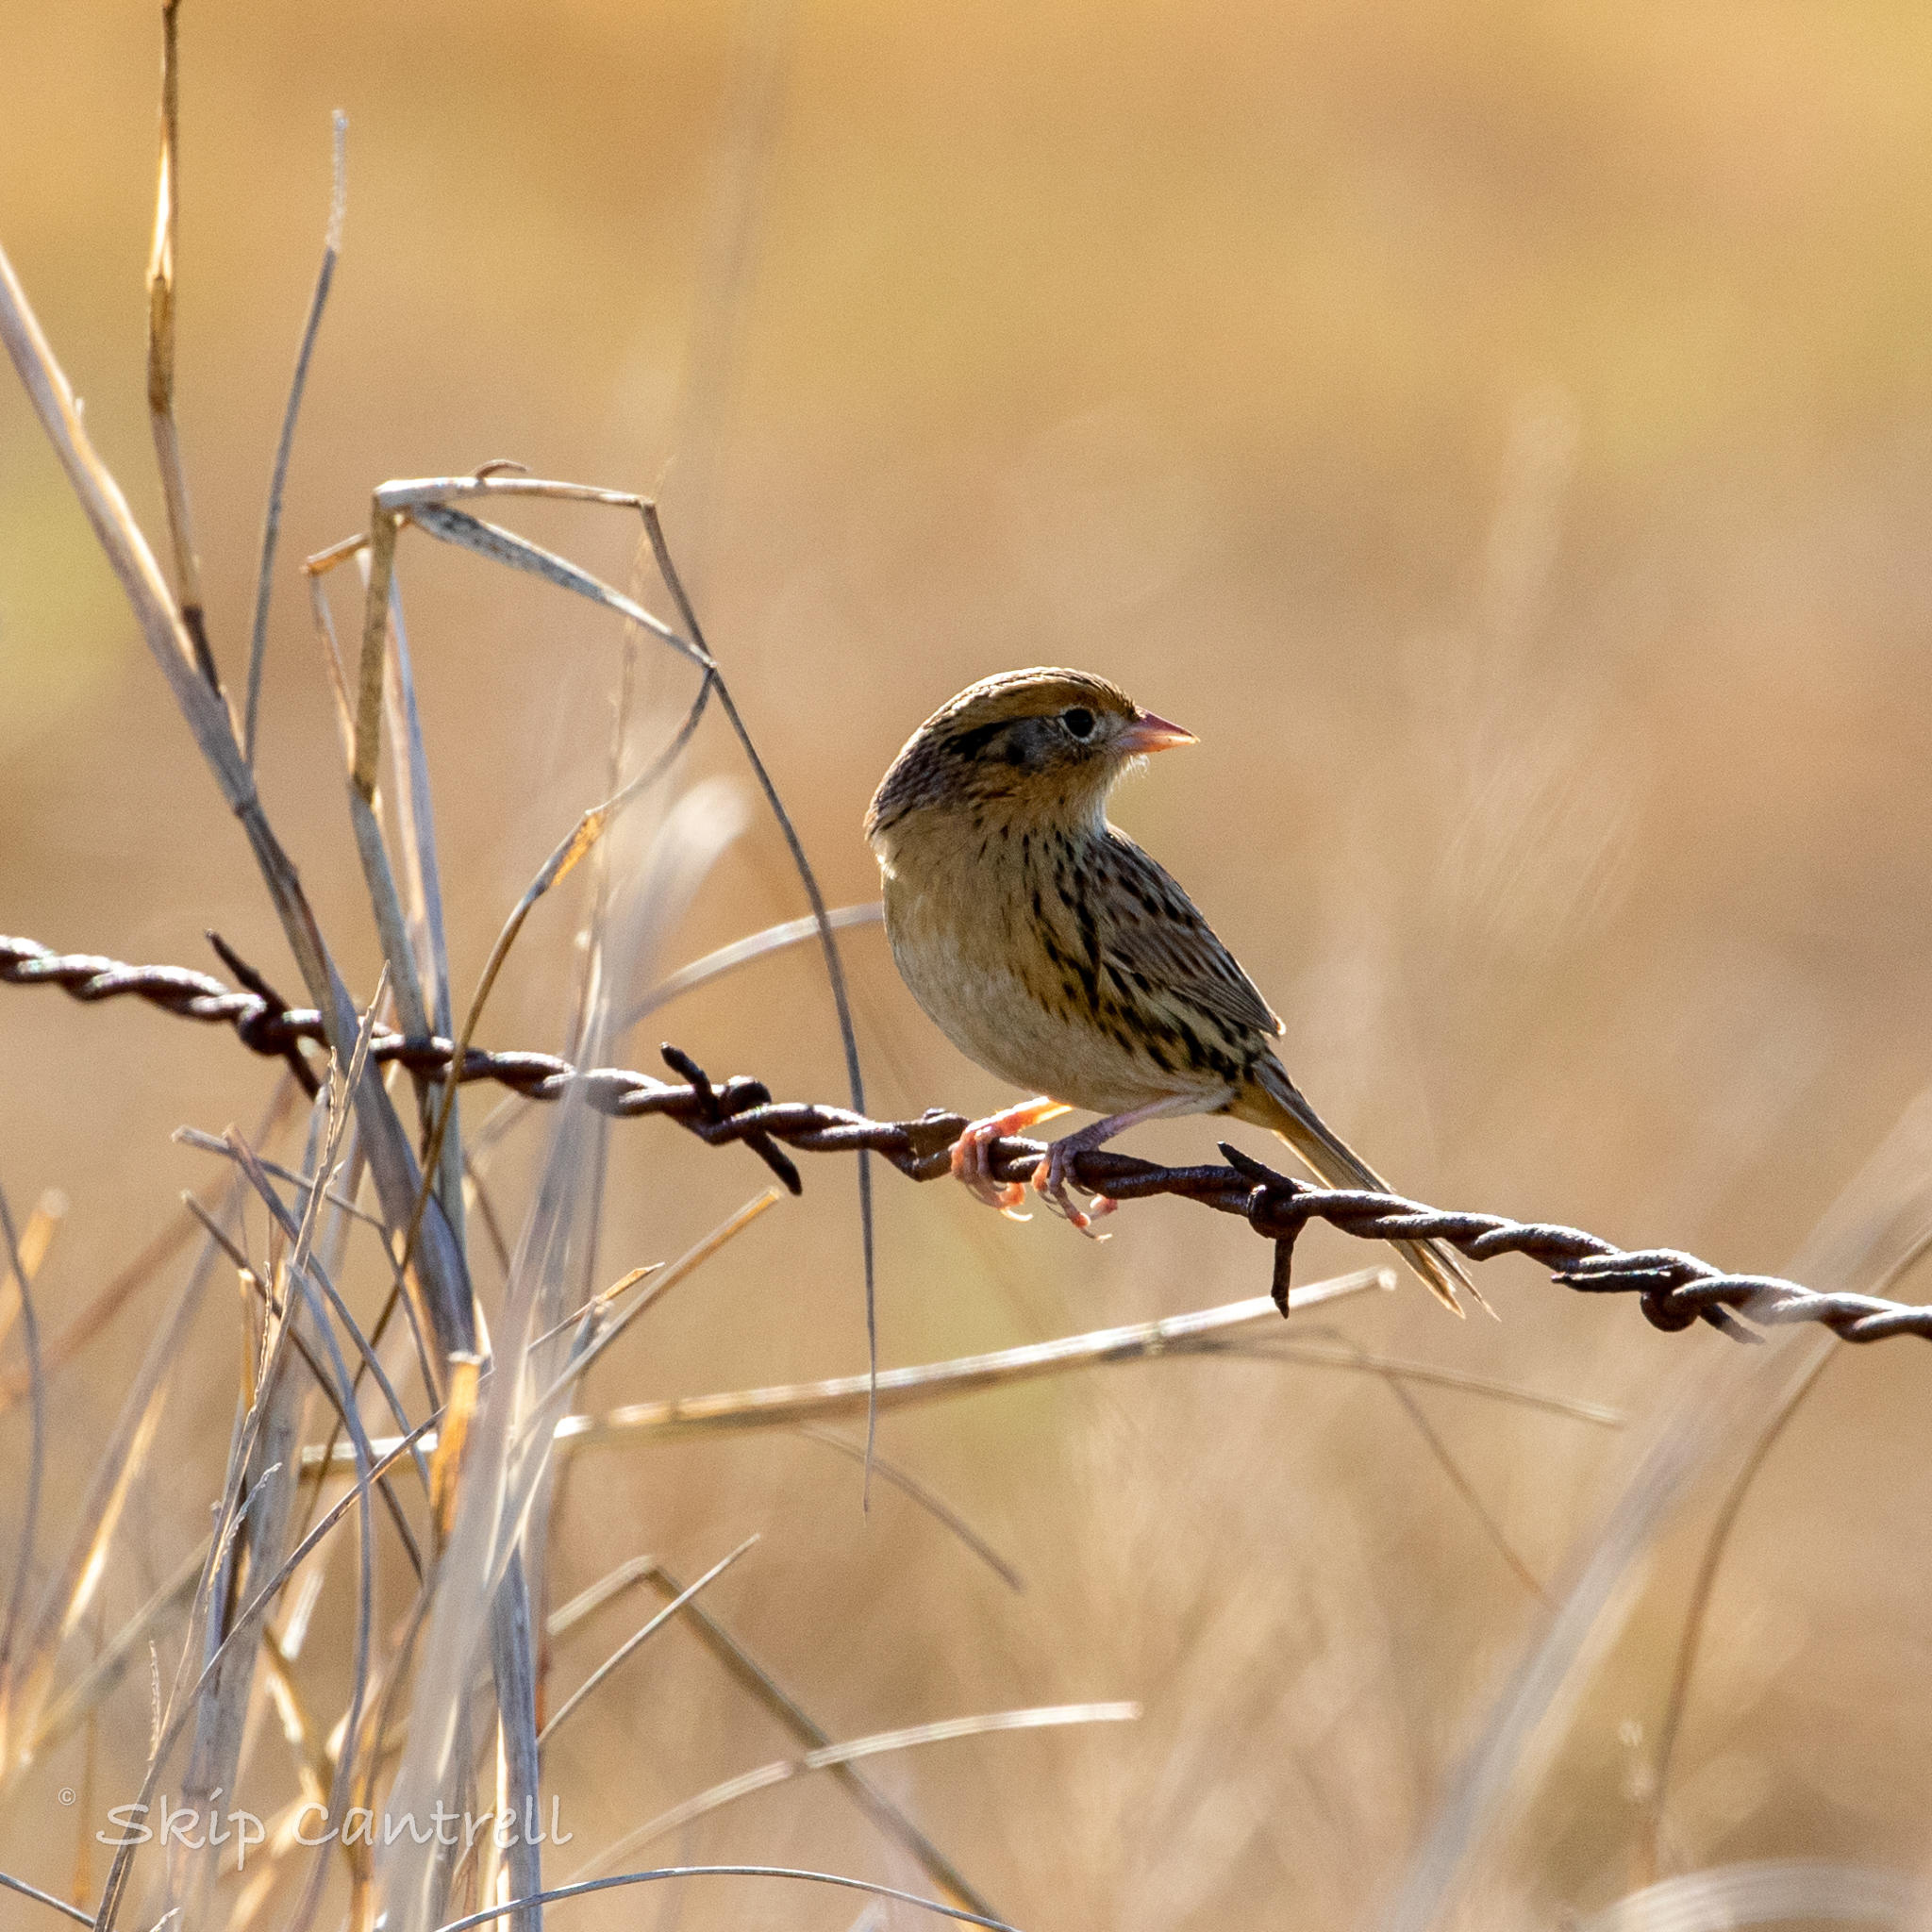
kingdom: Animalia
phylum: Chordata
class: Aves
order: Passeriformes
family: Passerellidae
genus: Ammospiza
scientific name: Ammospiza leconteii
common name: Le conte's sparrow
